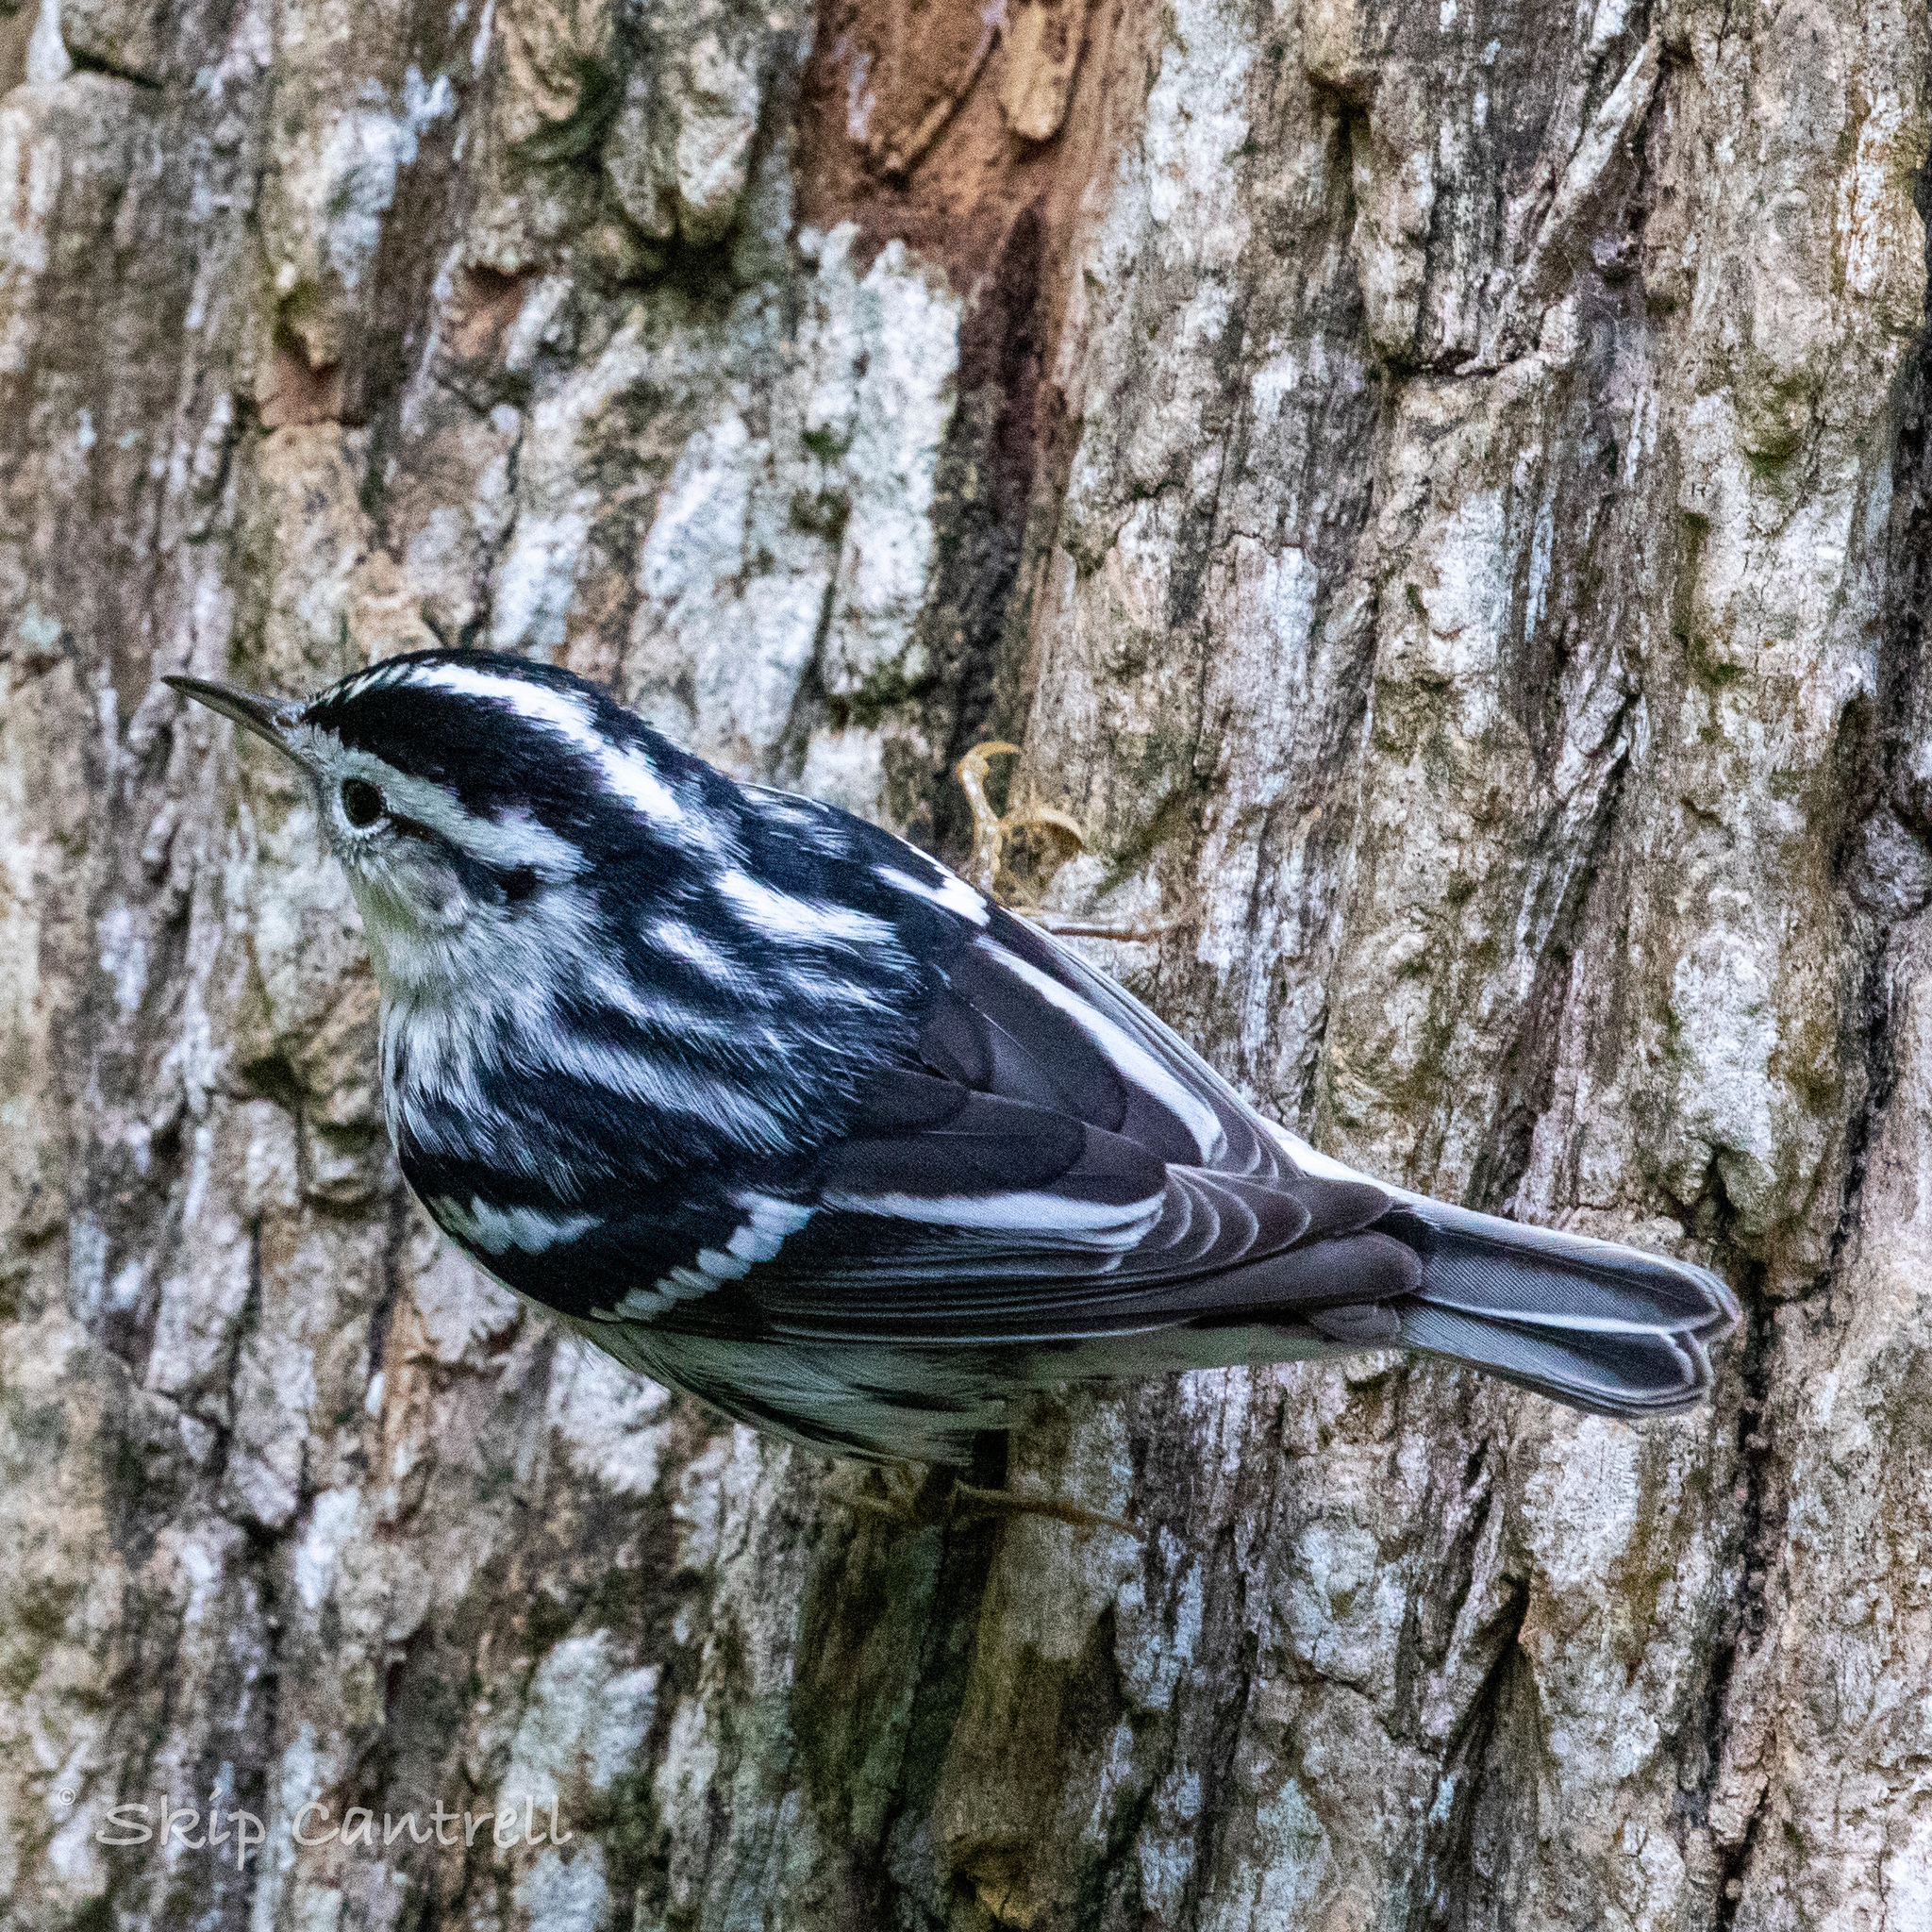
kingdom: Animalia
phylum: Chordata
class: Aves
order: Passeriformes
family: Parulidae
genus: Mniotilta
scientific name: Mniotilta varia
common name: Black-and-white warbler
